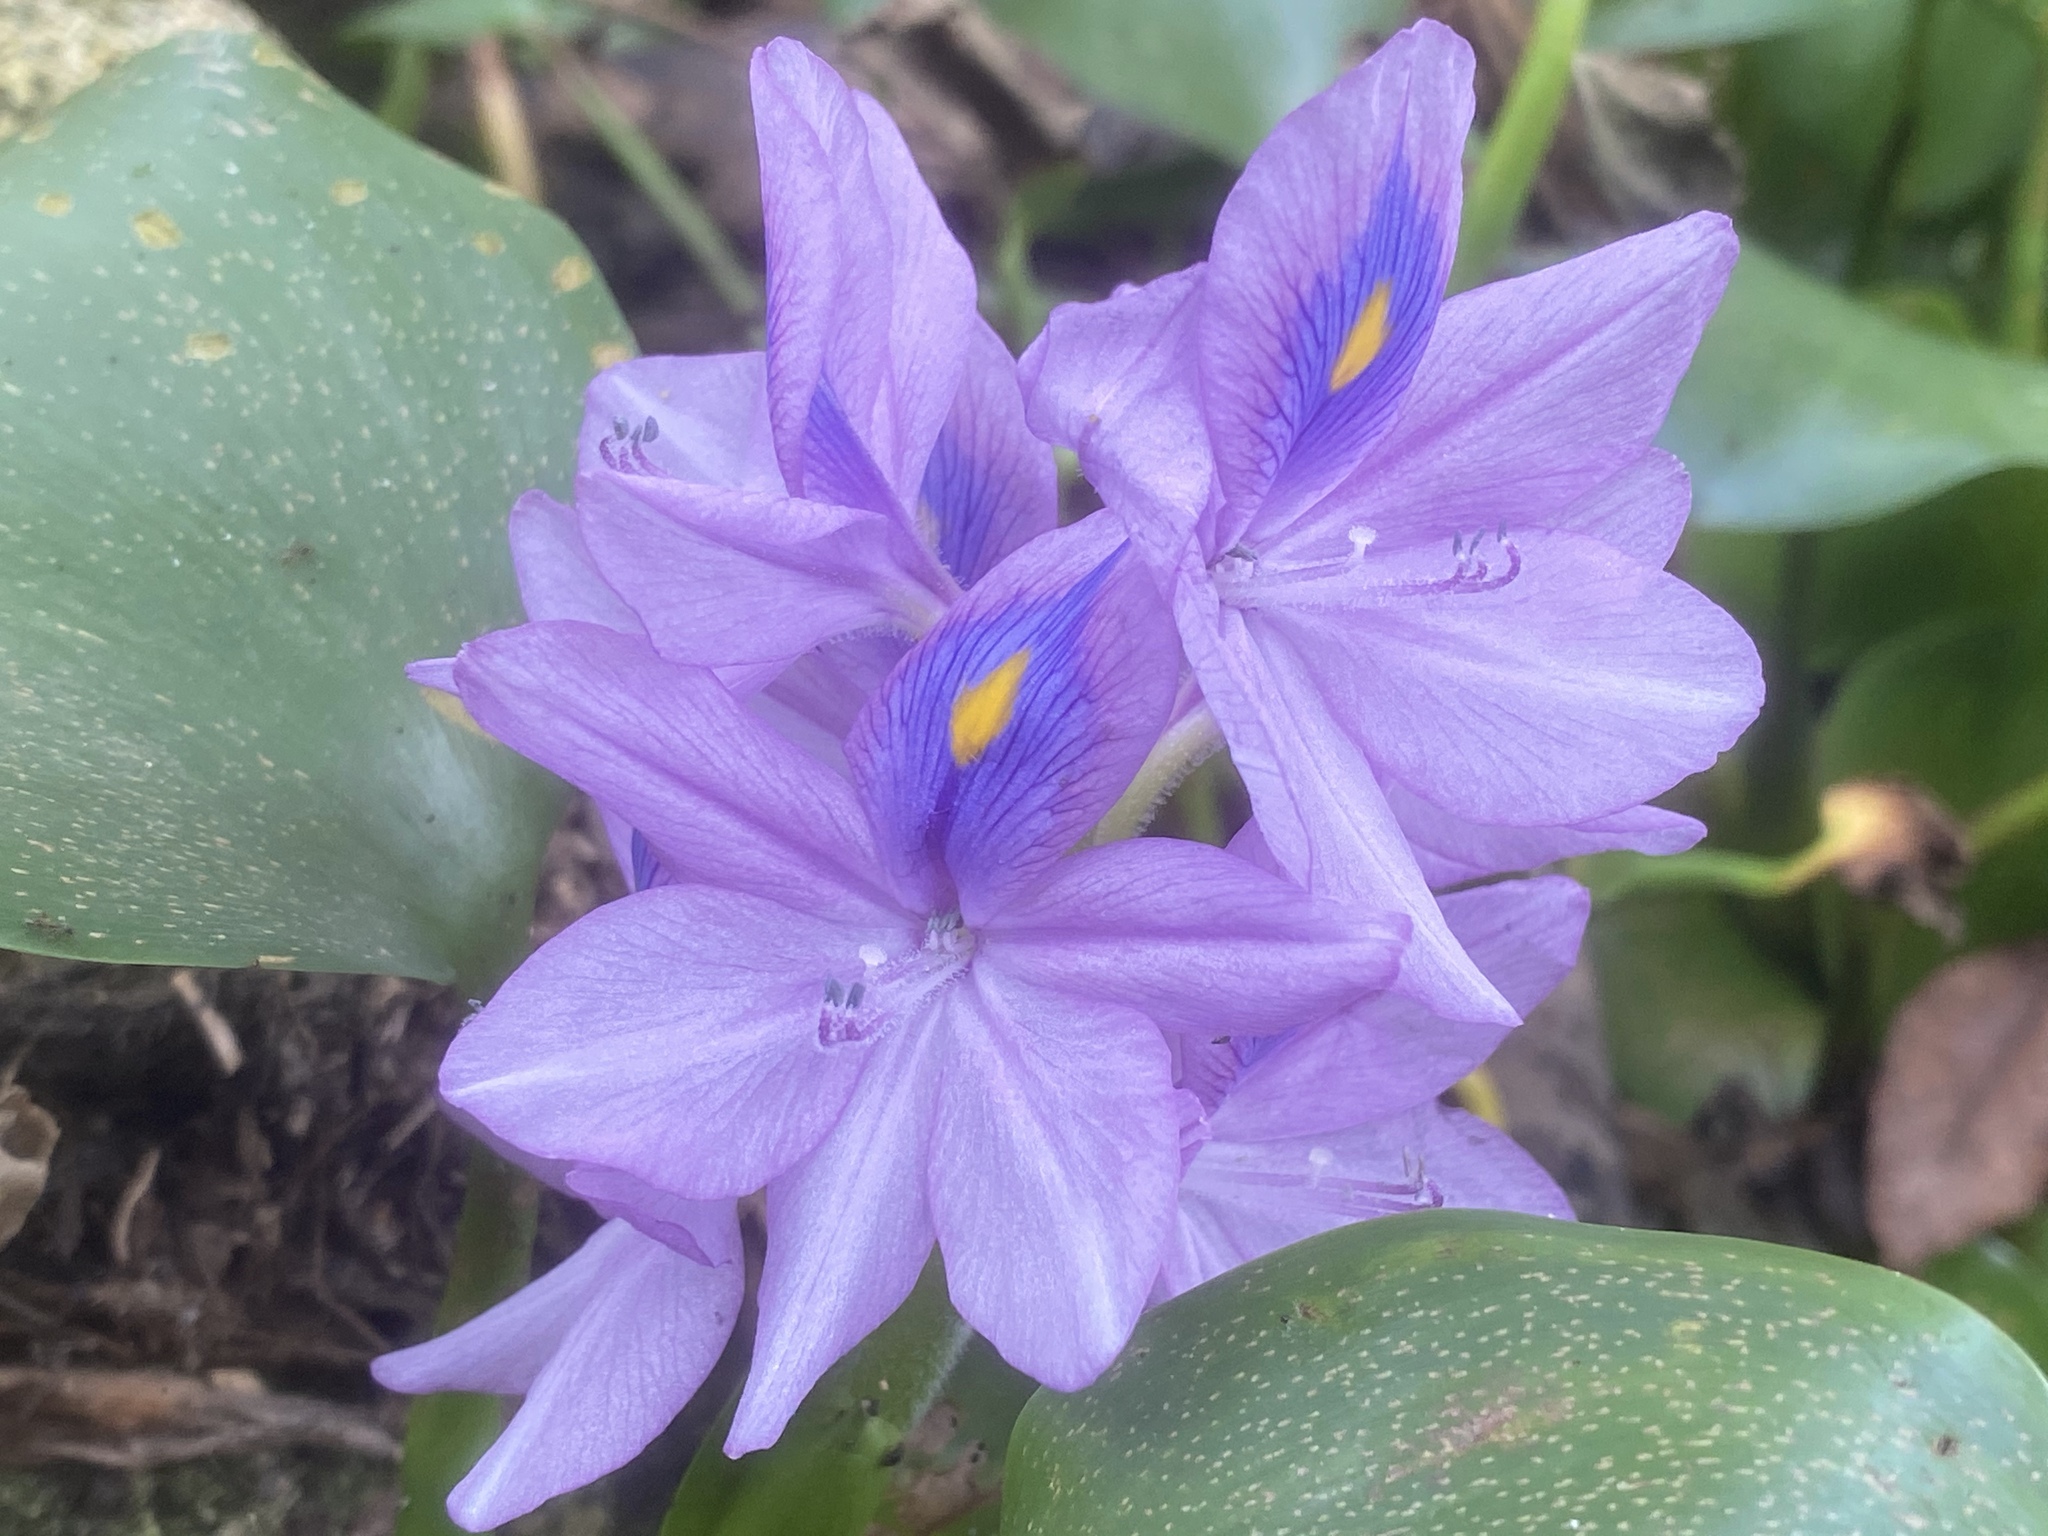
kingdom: Plantae
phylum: Tracheophyta
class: Liliopsida
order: Commelinales
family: Pontederiaceae
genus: Pontederia
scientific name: Pontederia crassipes
